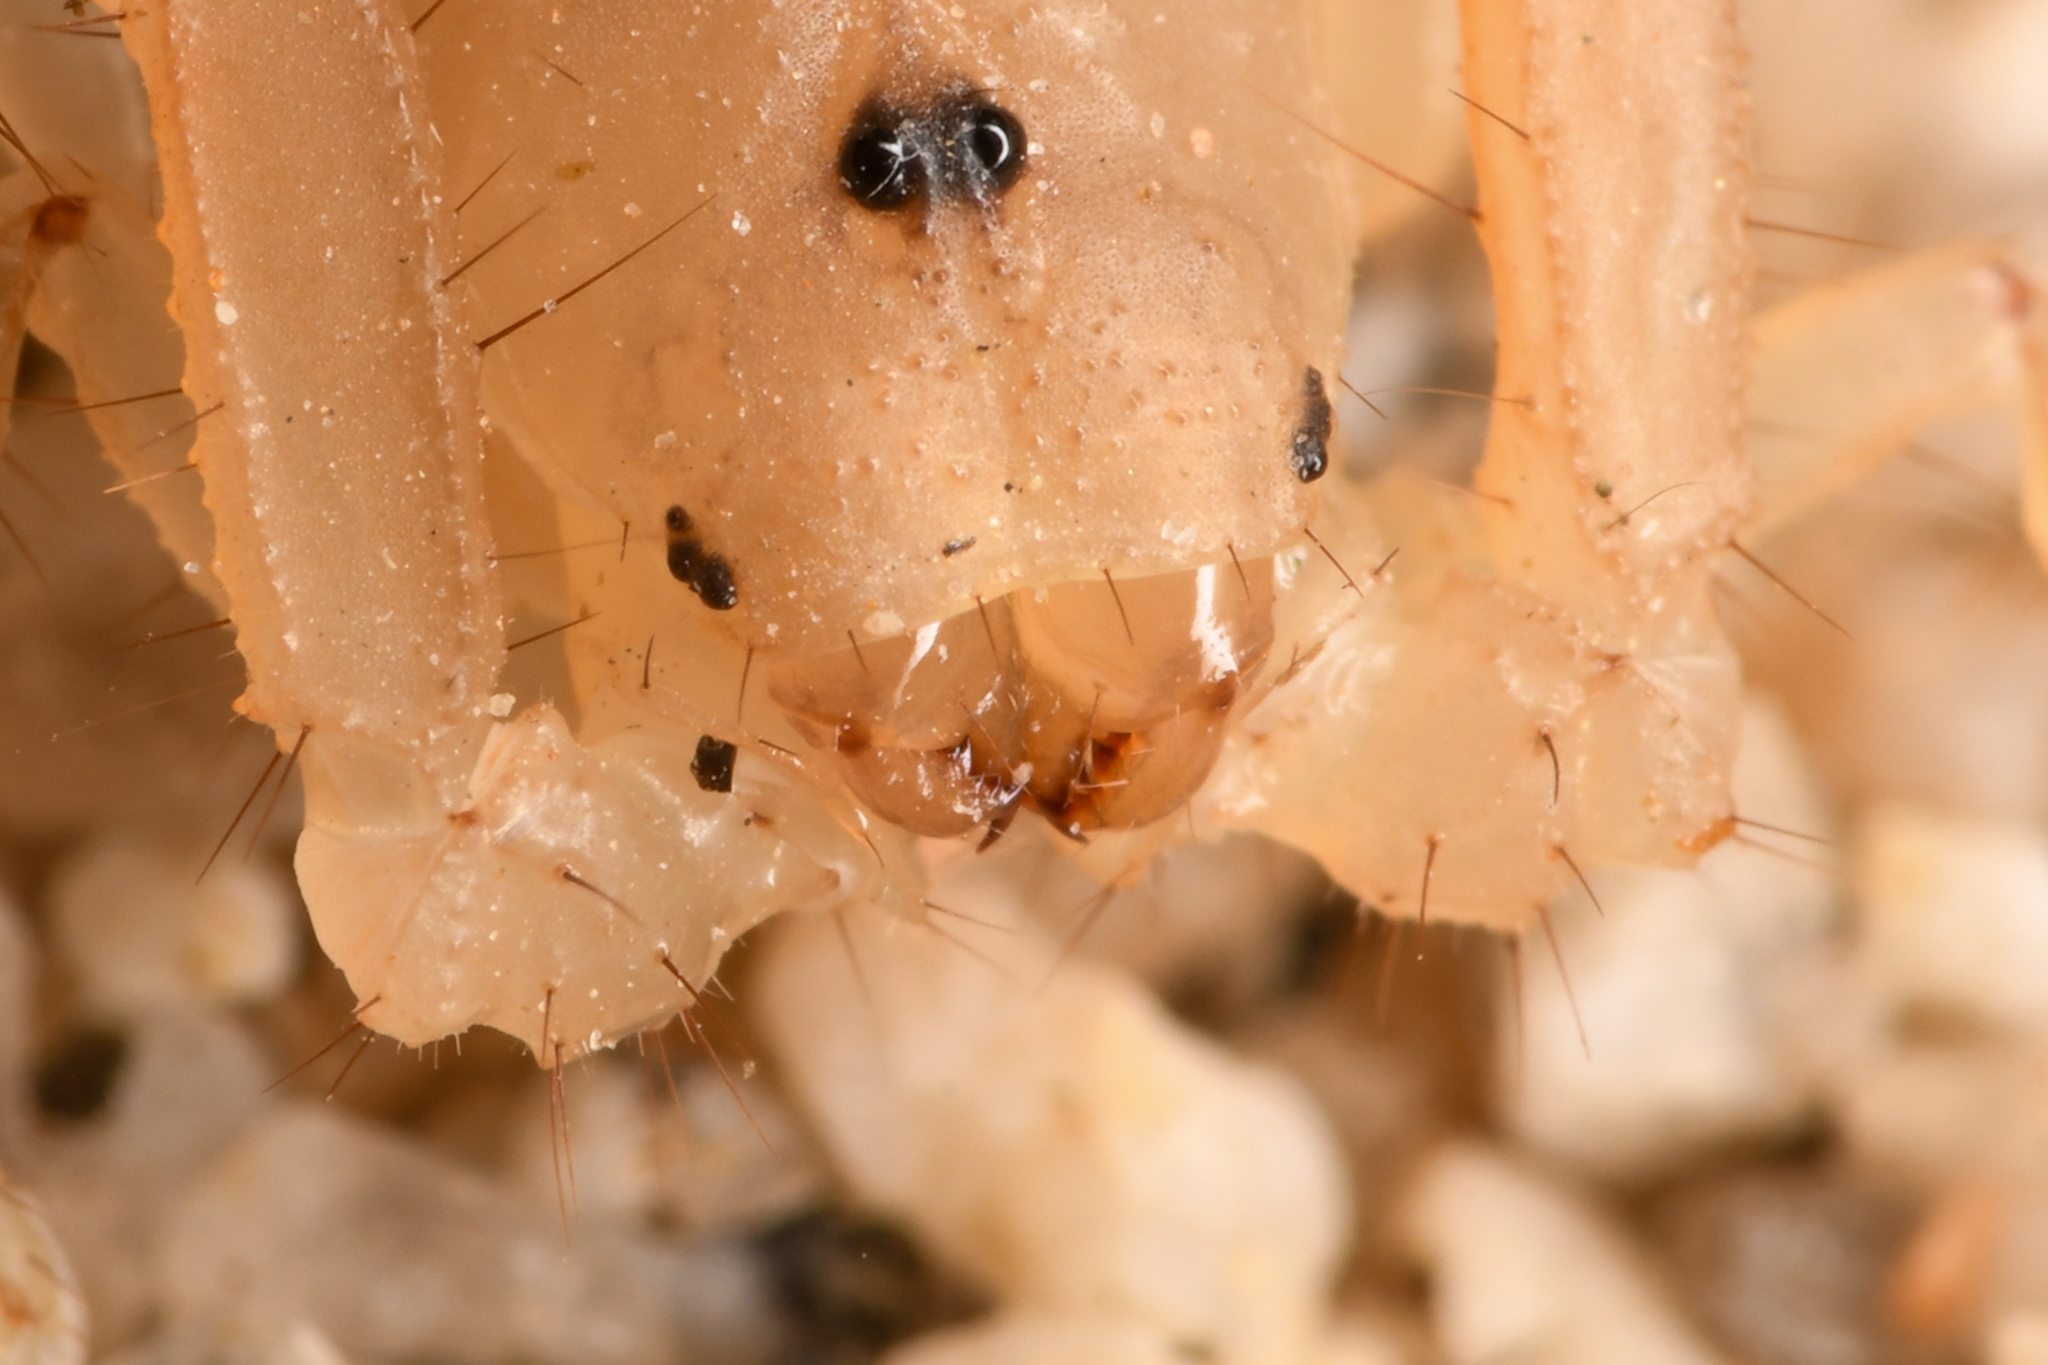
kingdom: Animalia
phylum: Arthropoda
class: Arachnida
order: Scorpiones
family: Vaejovidae
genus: Paravaejovis
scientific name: Paravaejovis waeringi
